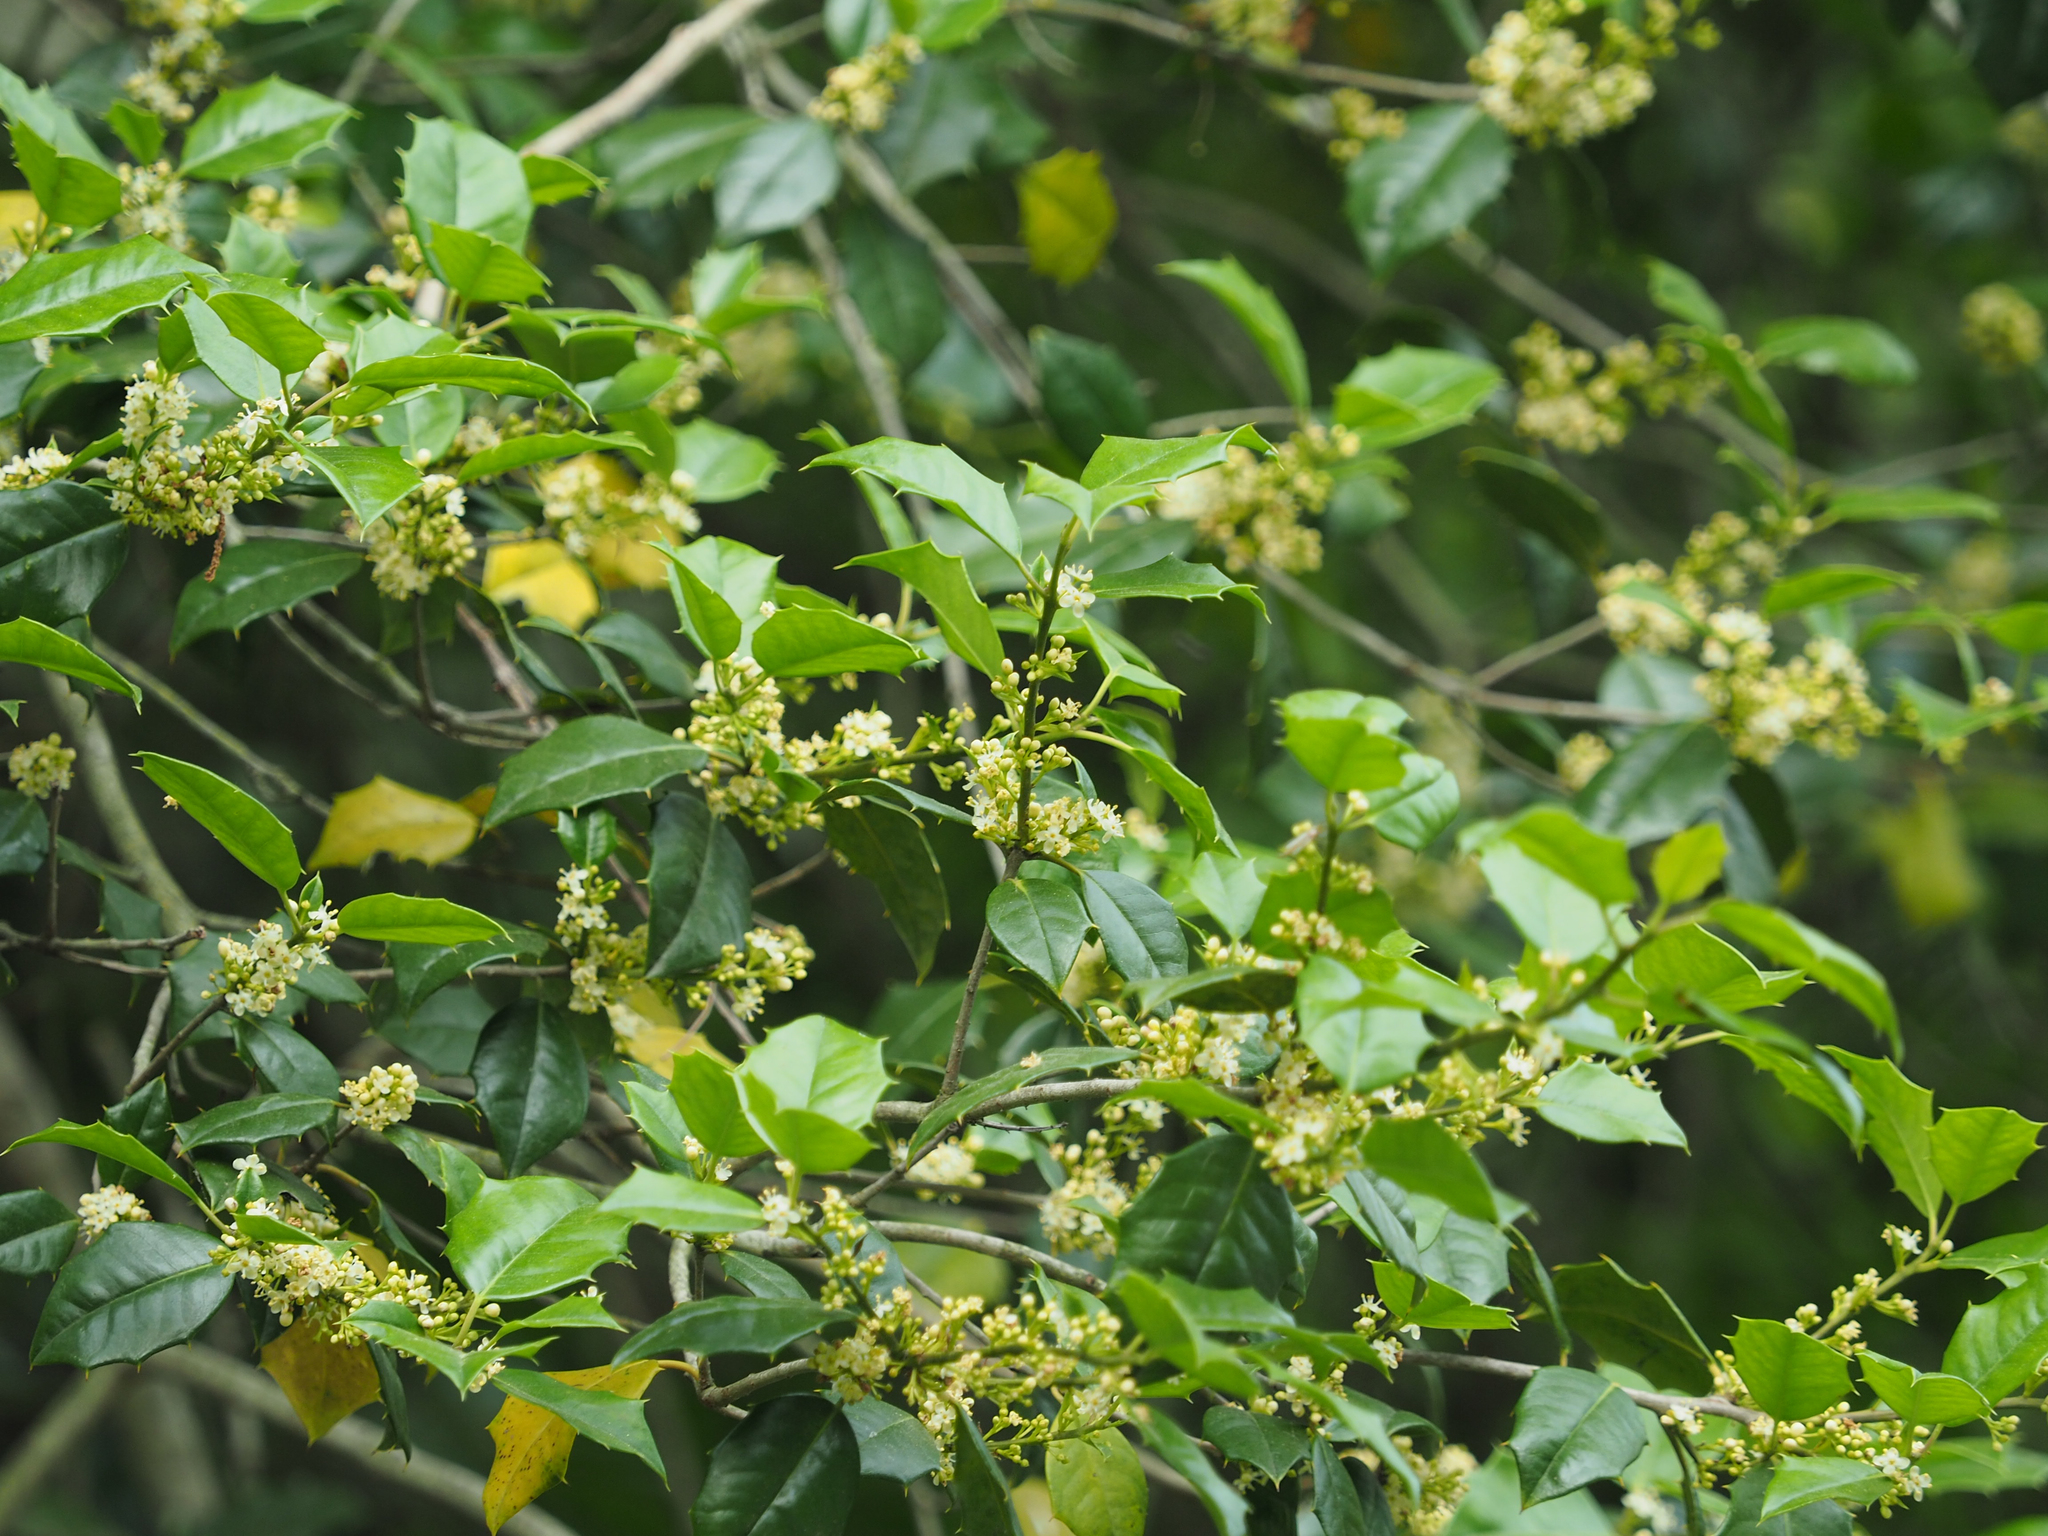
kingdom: Plantae
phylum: Tracheophyta
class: Magnoliopsida
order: Aquifoliales
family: Aquifoliaceae
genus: Ilex
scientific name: Ilex opaca
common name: American holly
